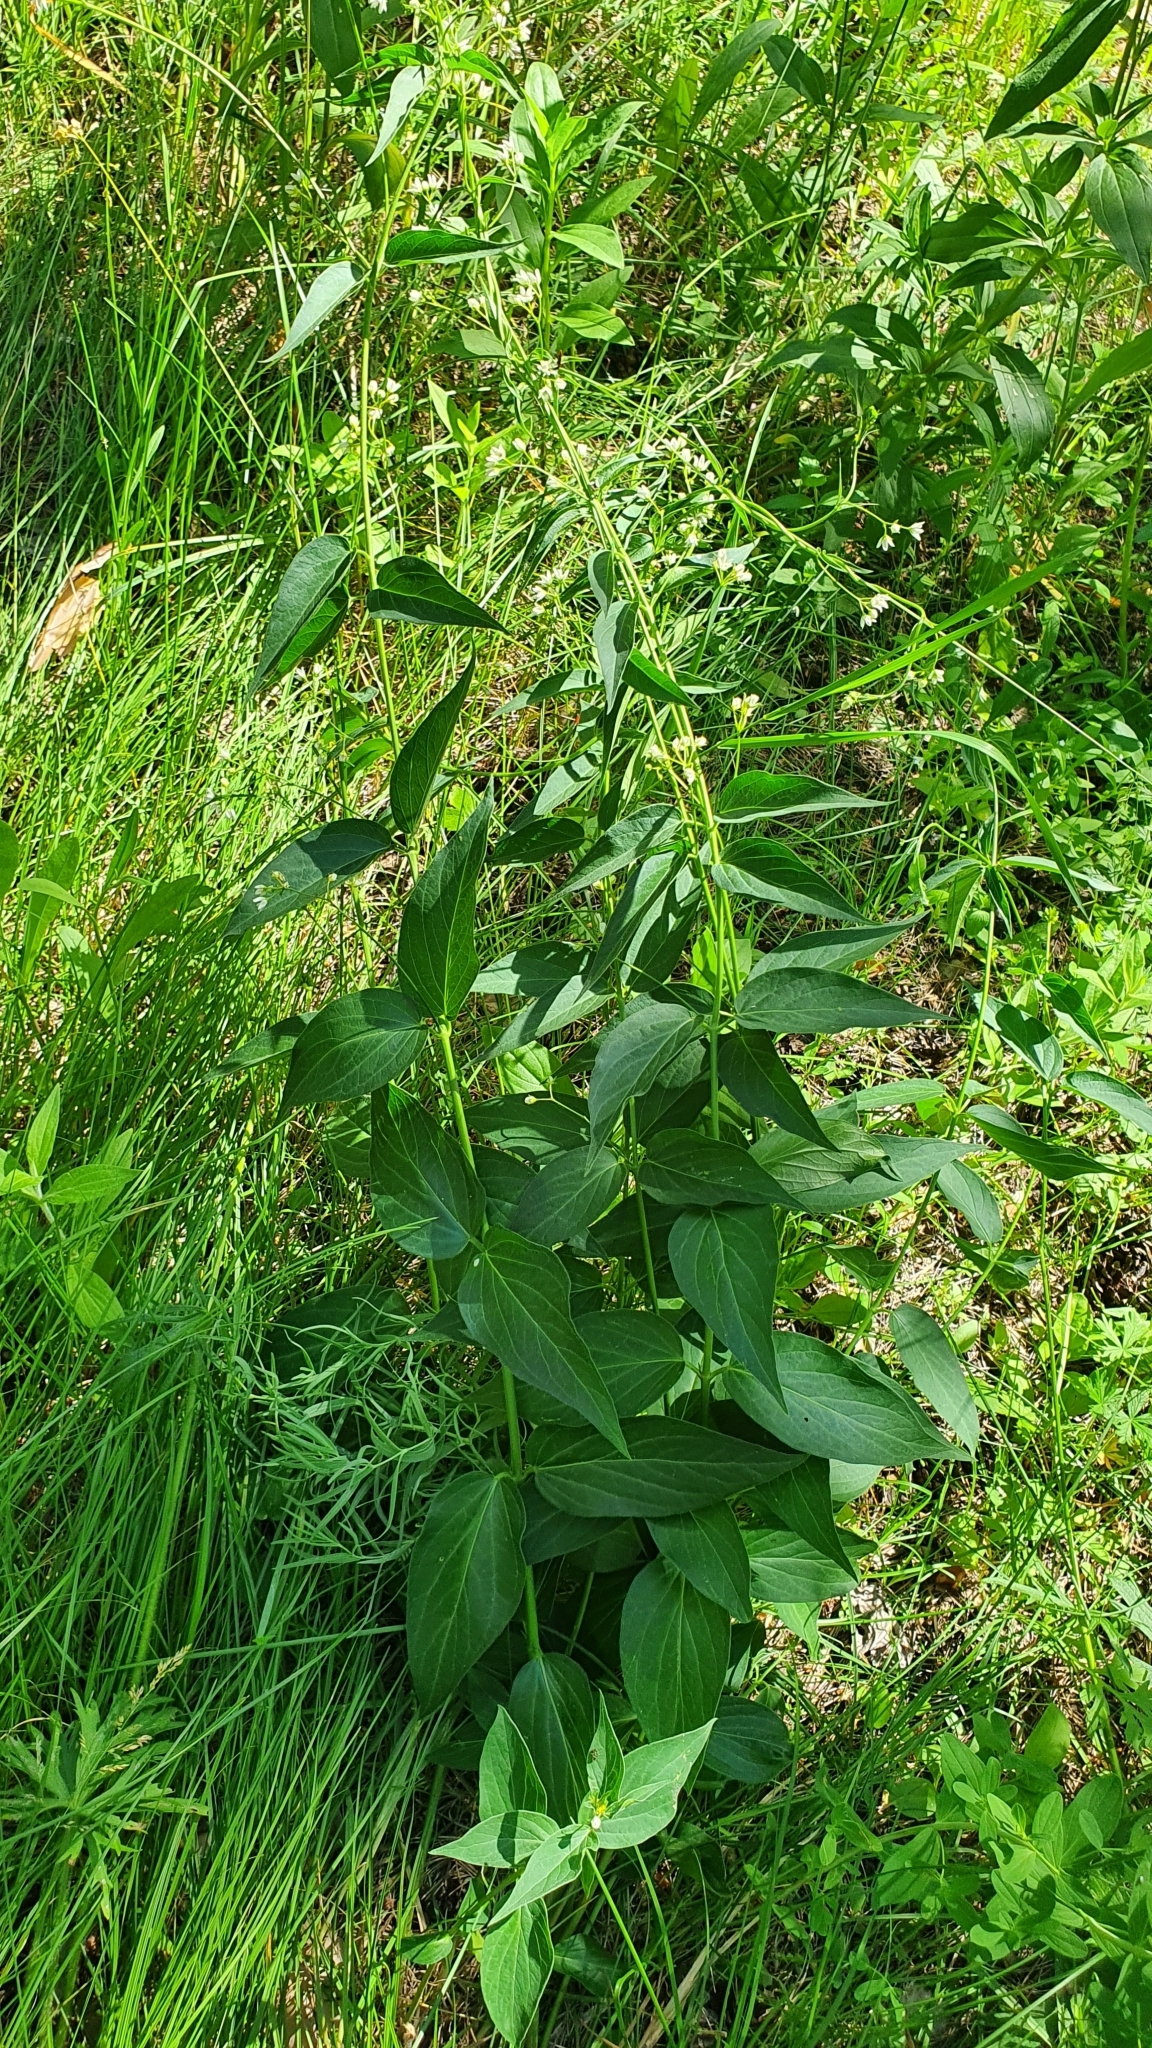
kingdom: Plantae
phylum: Tracheophyta
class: Magnoliopsida
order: Gentianales
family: Apocynaceae
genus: Vincetoxicum
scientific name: Vincetoxicum hirundinaria
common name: White swallowwort
